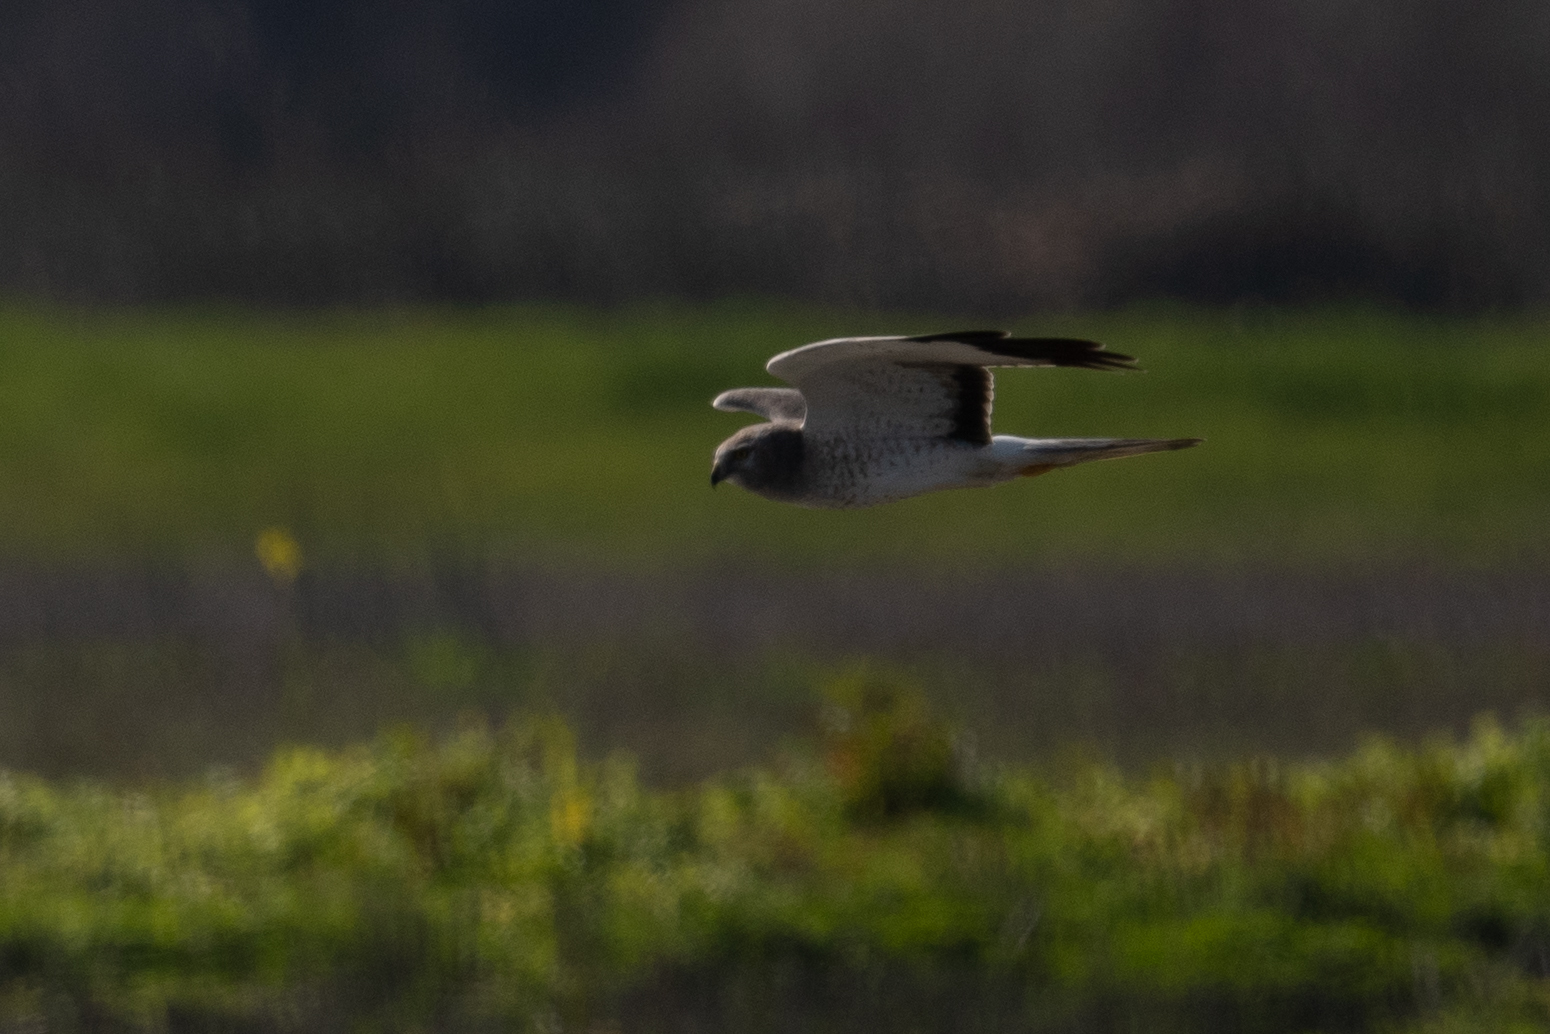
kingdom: Animalia
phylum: Chordata
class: Aves
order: Accipitriformes
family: Accipitridae
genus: Circus
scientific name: Circus cyaneus
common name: Hen harrier
